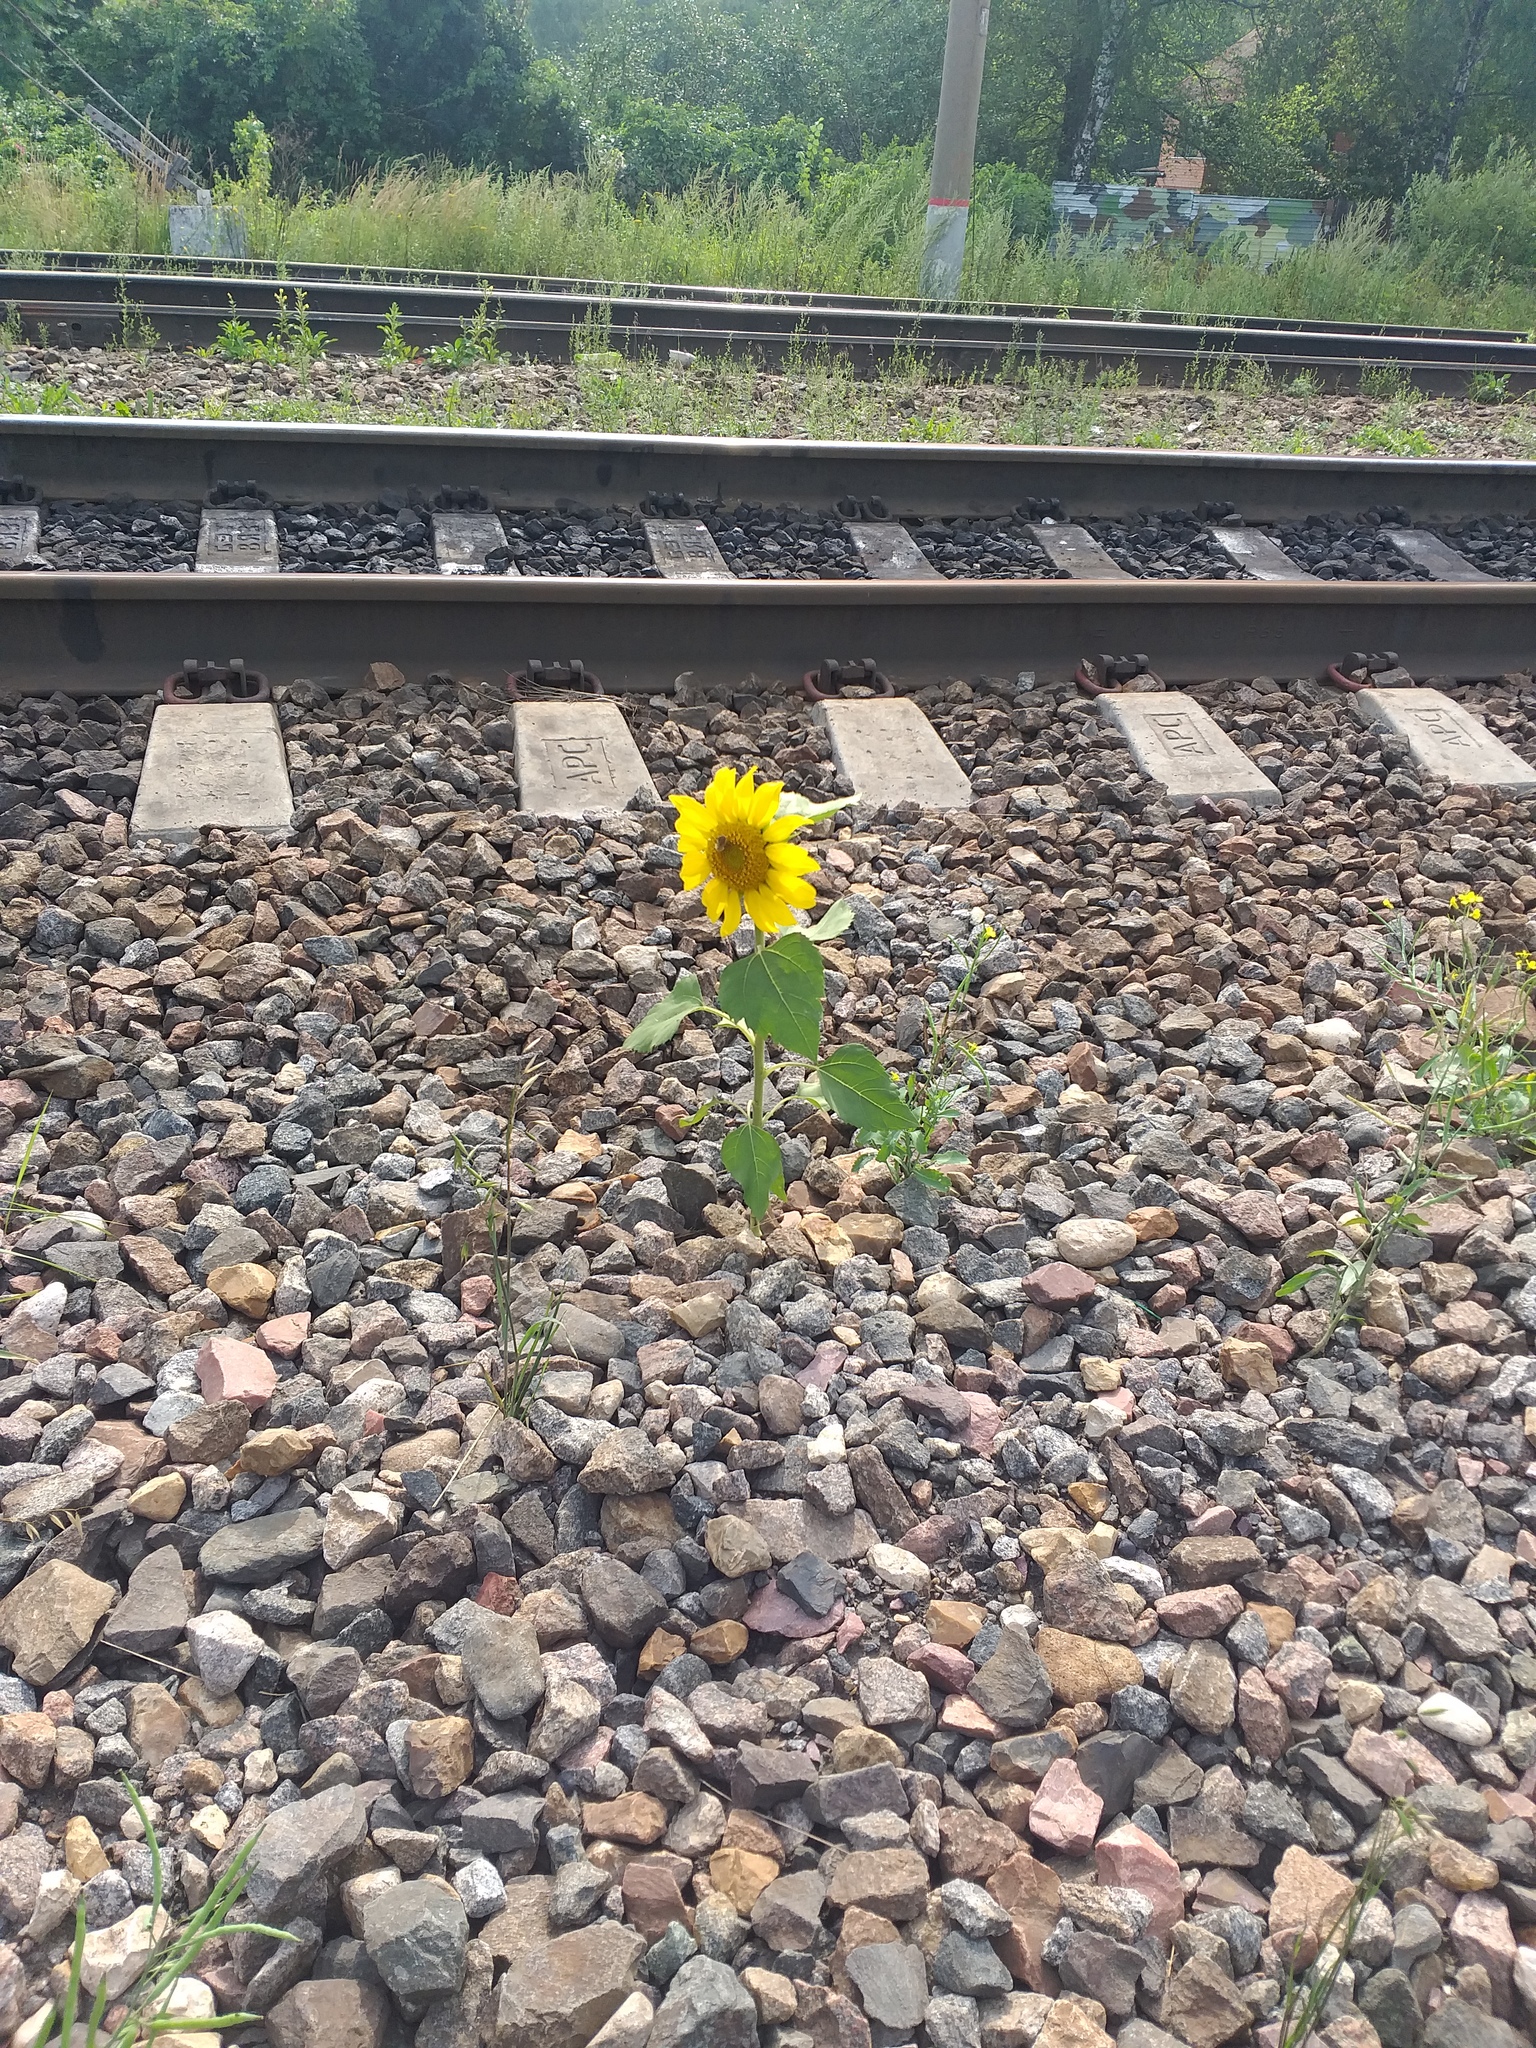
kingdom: Plantae
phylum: Tracheophyta
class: Magnoliopsida
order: Asterales
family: Asteraceae
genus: Helianthus
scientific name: Helianthus annuus
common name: Sunflower
